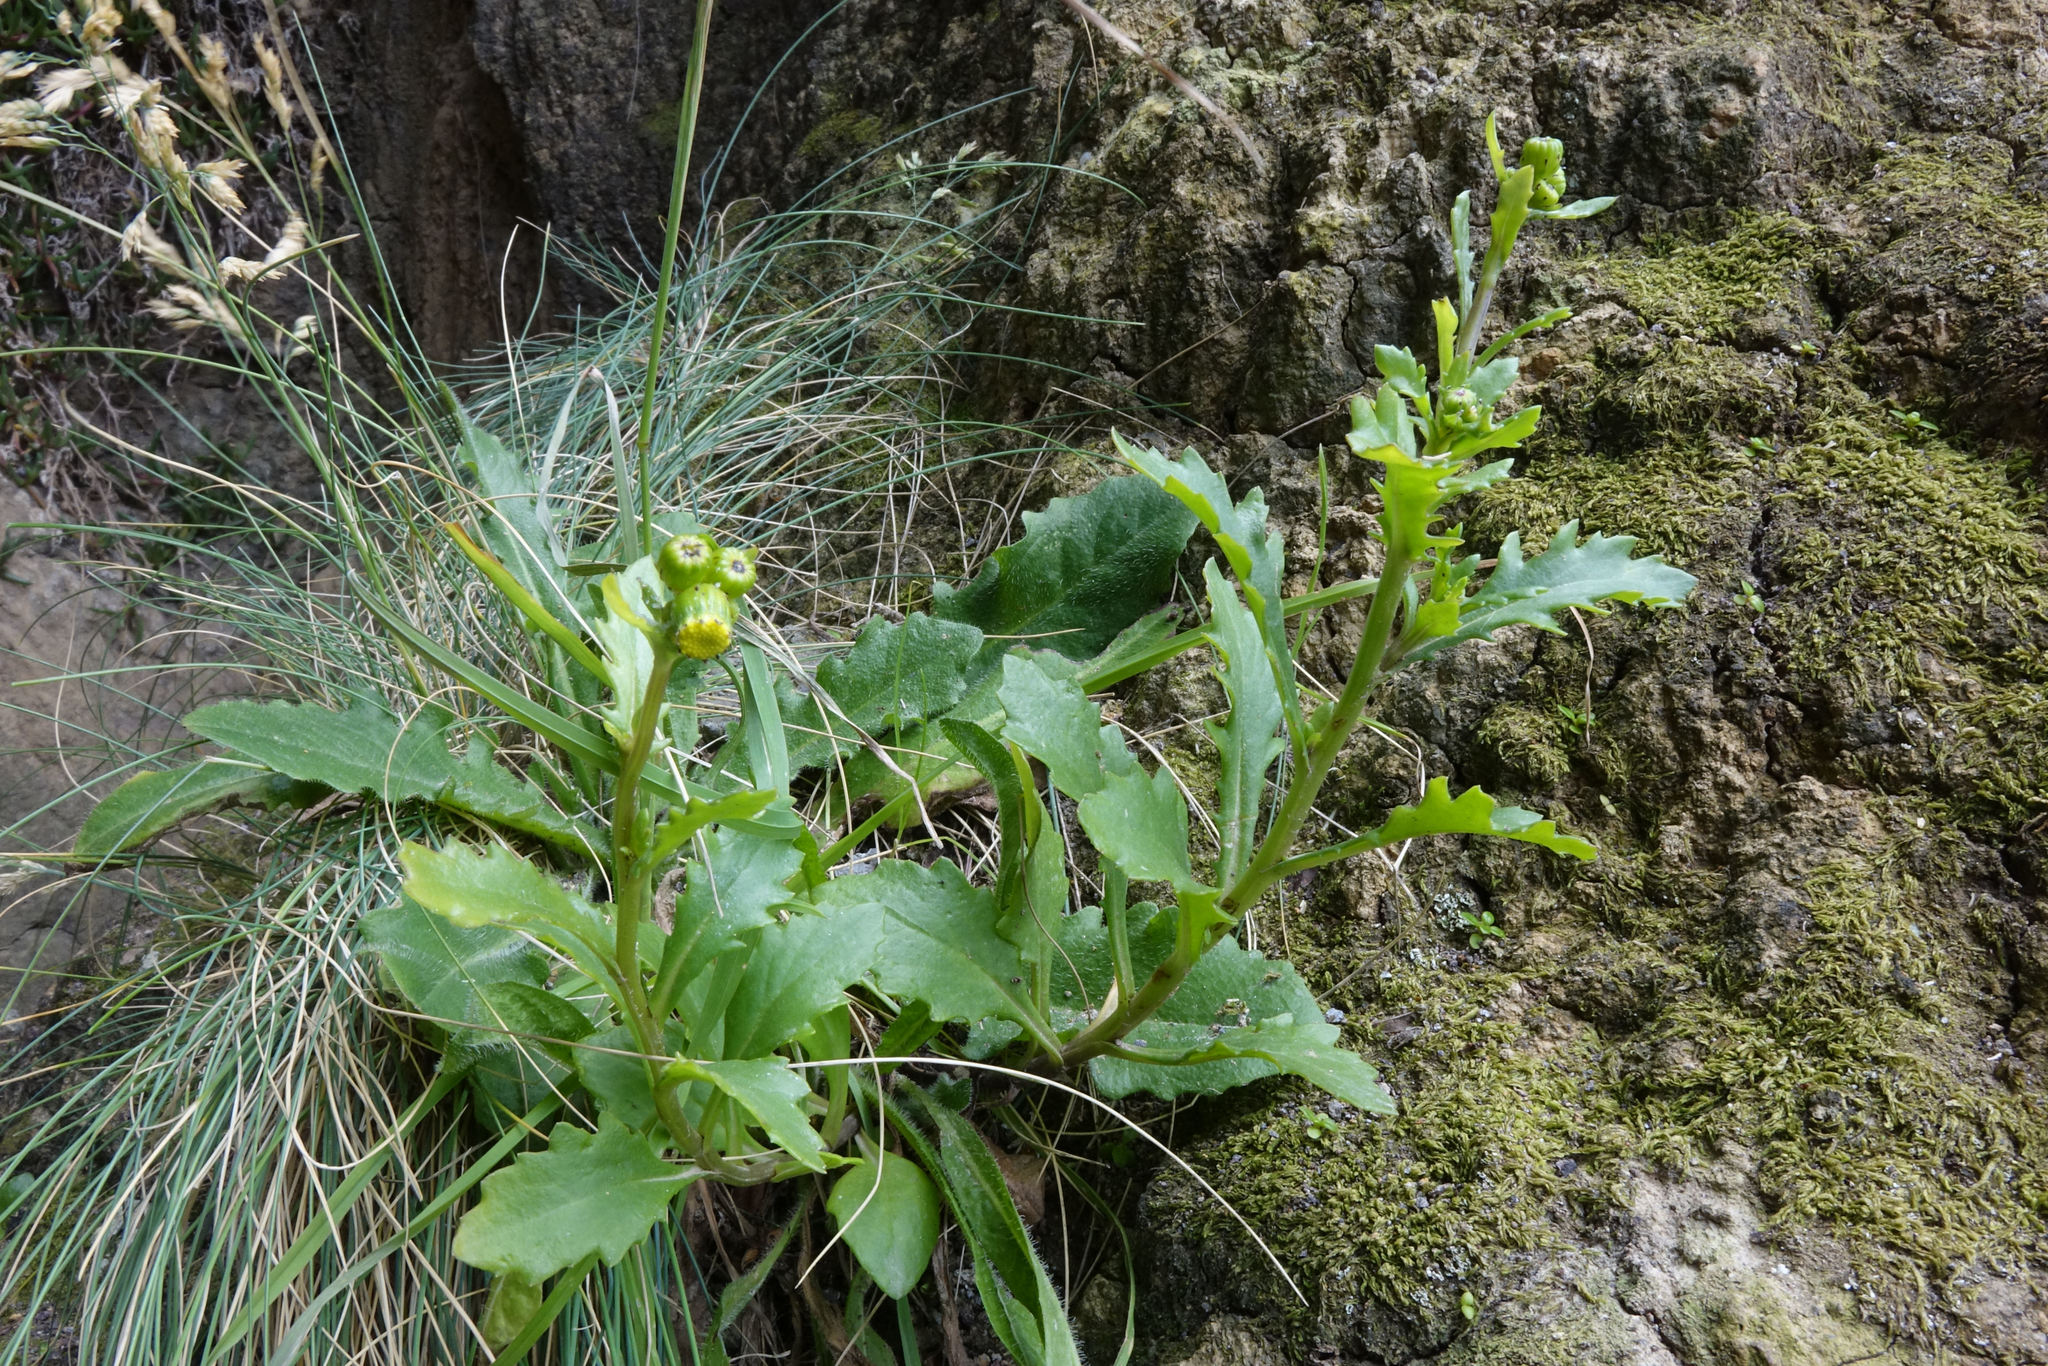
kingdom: Plantae
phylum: Tracheophyta
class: Magnoliopsida
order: Asterales
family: Asteraceae
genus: Senecio
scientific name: Senecio matatini
